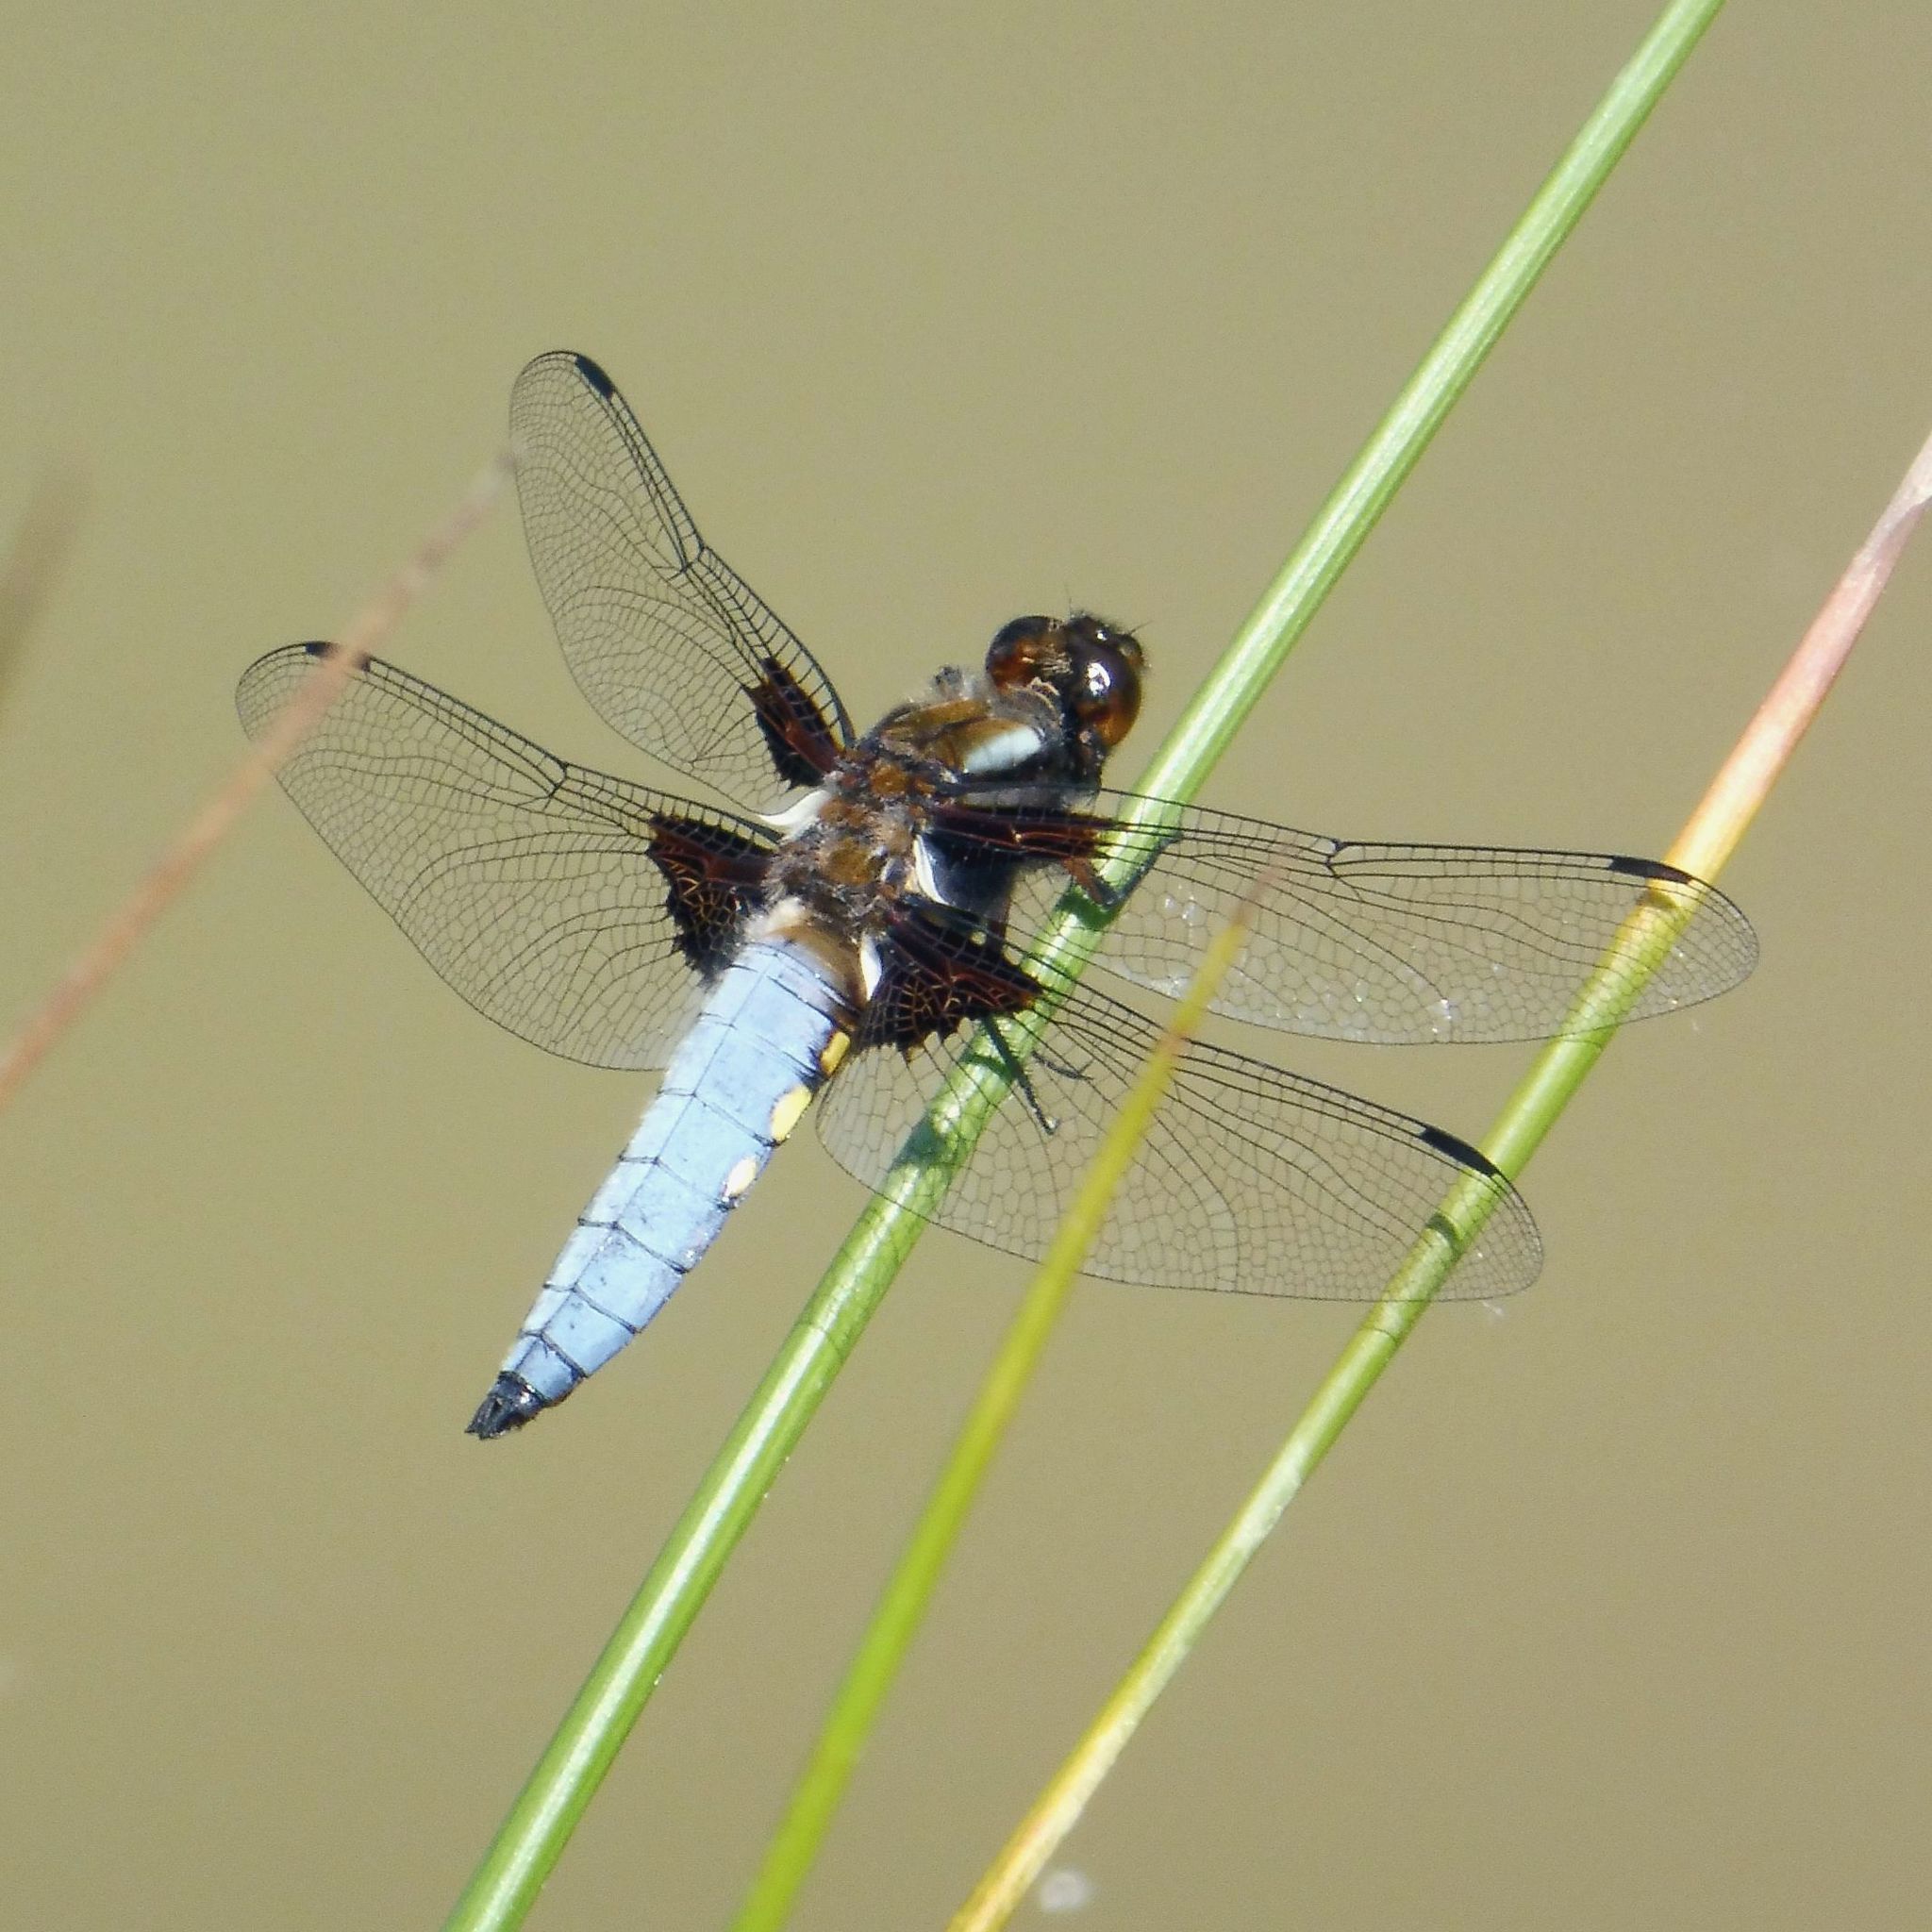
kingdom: Animalia
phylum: Arthropoda
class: Insecta
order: Odonata
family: Libellulidae
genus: Libellula
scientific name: Libellula depressa
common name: Broad-bodied chaser
